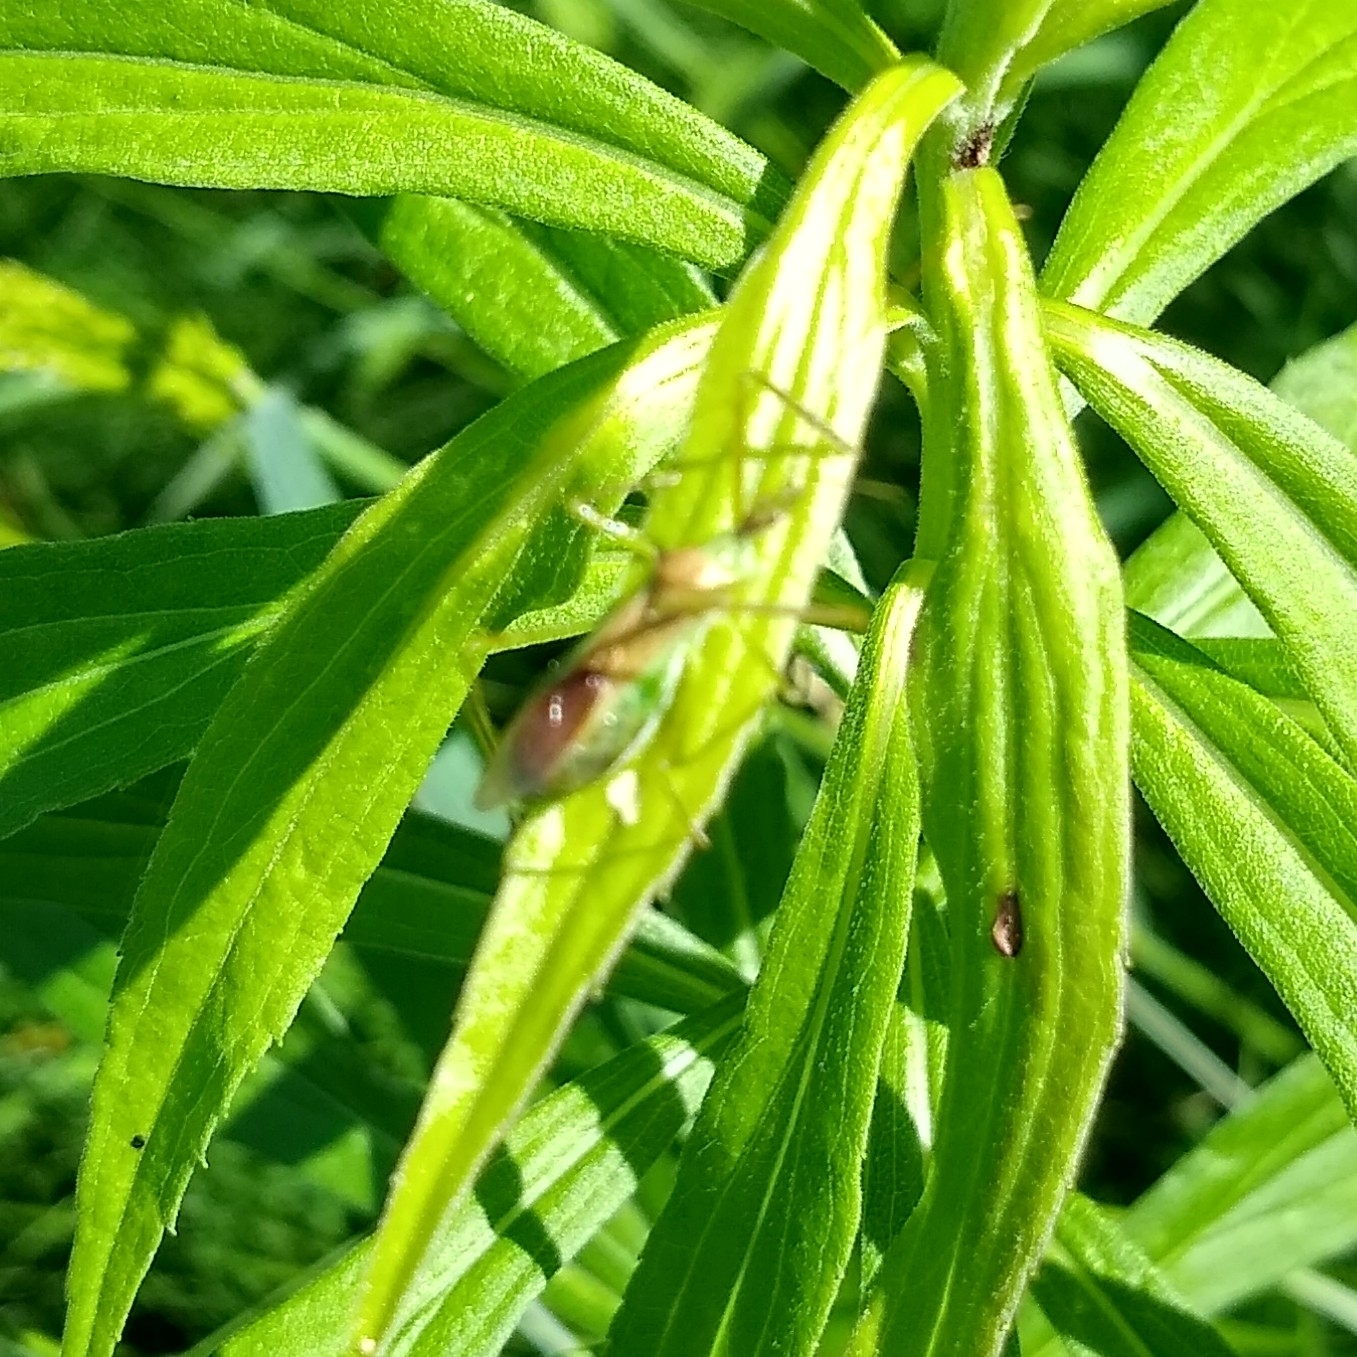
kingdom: Animalia
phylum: Arthropoda
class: Insecta
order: Hemiptera
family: Reduviidae
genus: Zelus
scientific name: Zelus luridus
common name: Pale green assassin bug
